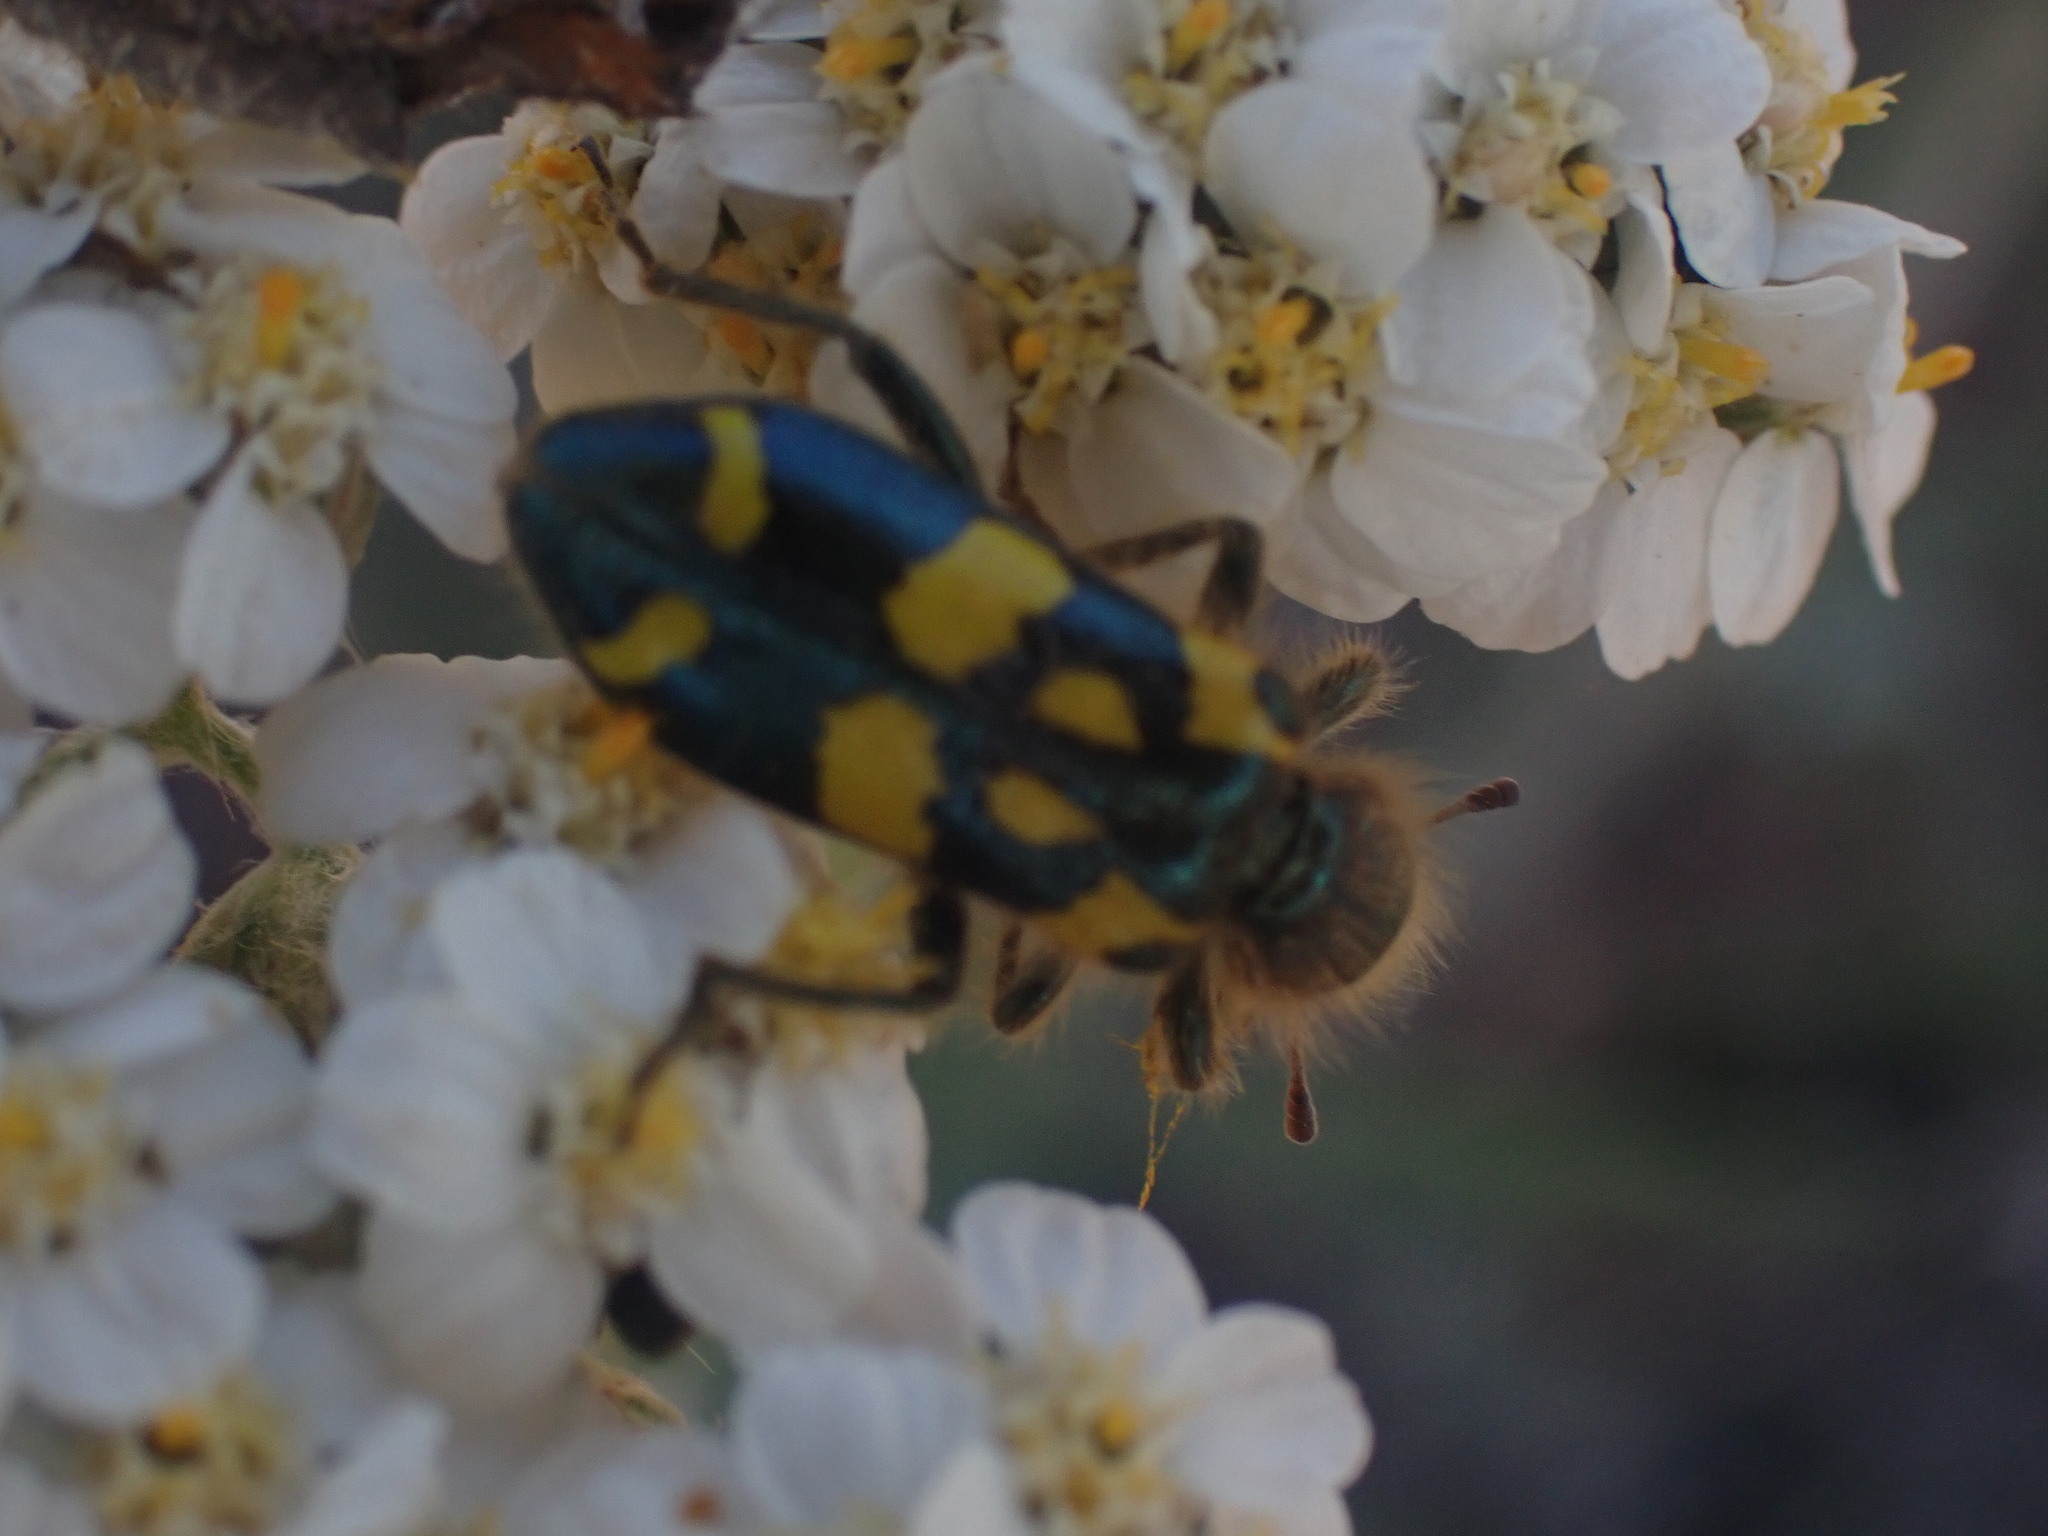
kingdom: Animalia
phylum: Arthropoda
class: Insecta
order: Coleoptera
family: Cleridae
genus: Trichodes
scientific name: Trichodes ornatus
